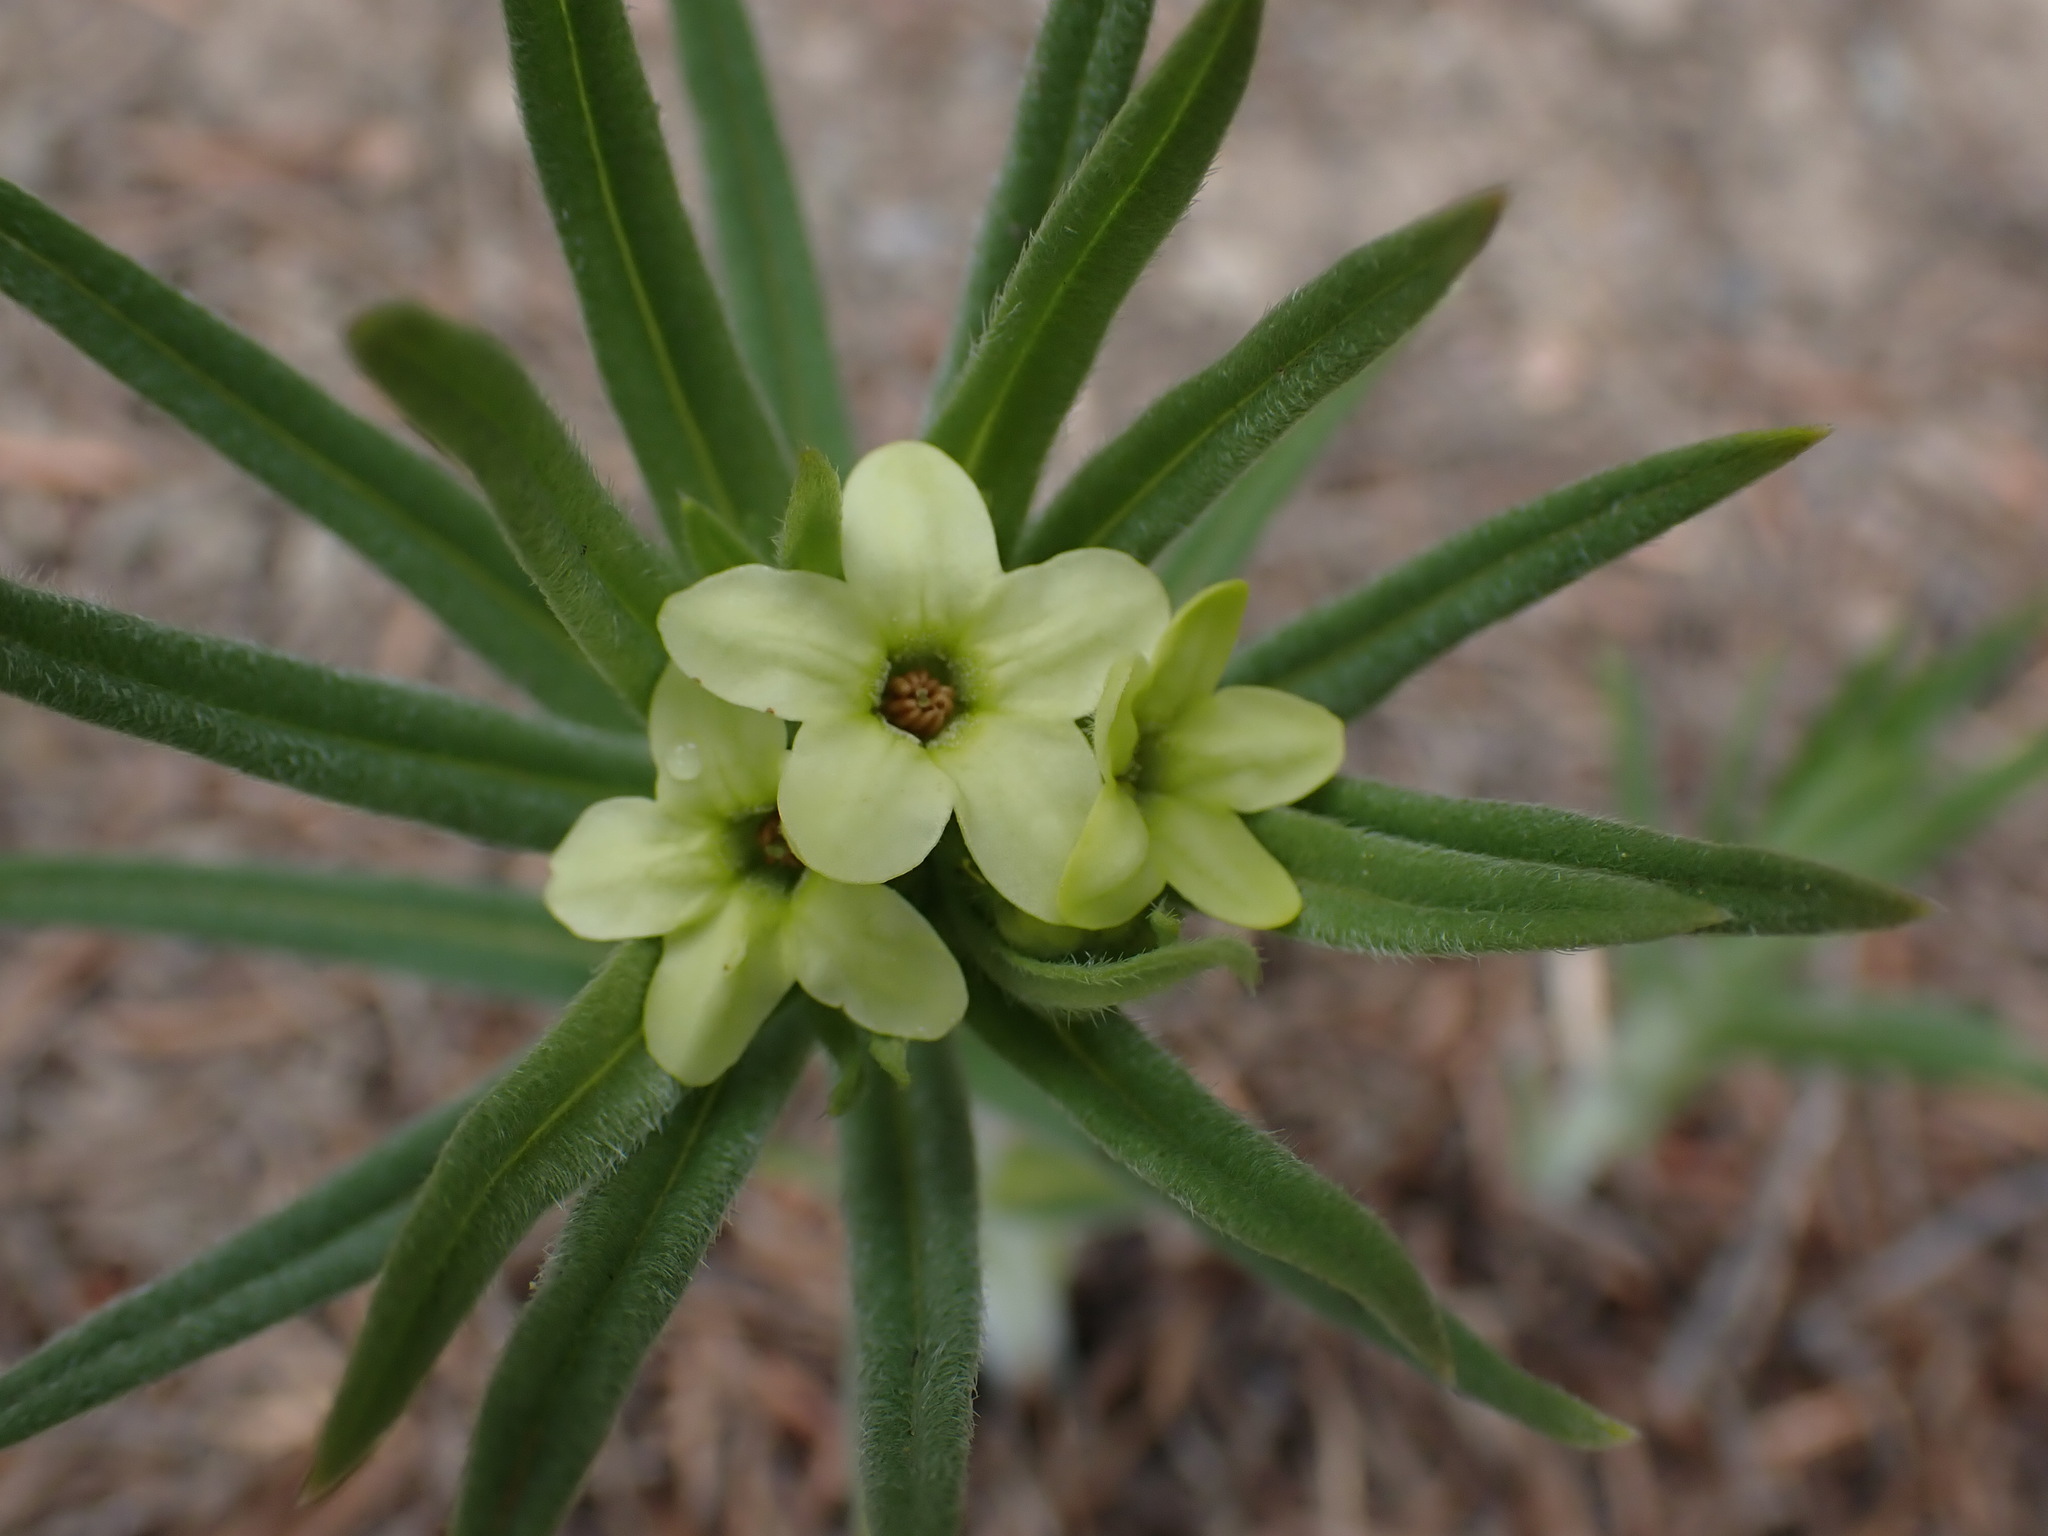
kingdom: Plantae
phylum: Tracheophyta
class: Magnoliopsida
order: Boraginales
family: Boraginaceae
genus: Lithospermum
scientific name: Lithospermum ruderale
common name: Western gromwell
